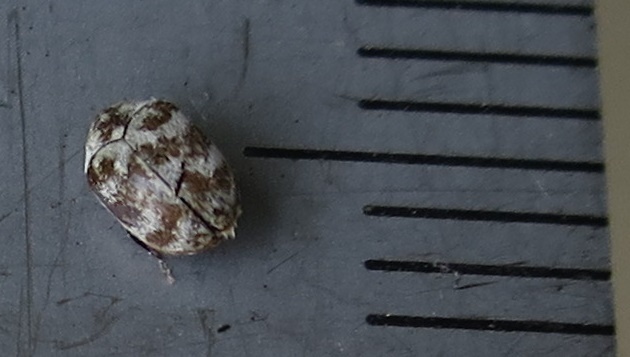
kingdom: Animalia
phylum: Arthropoda
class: Insecta
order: Coleoptera
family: Dermestidae
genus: Anthrenus
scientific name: Anthrenus verbasci
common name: Varied carpet beetle
